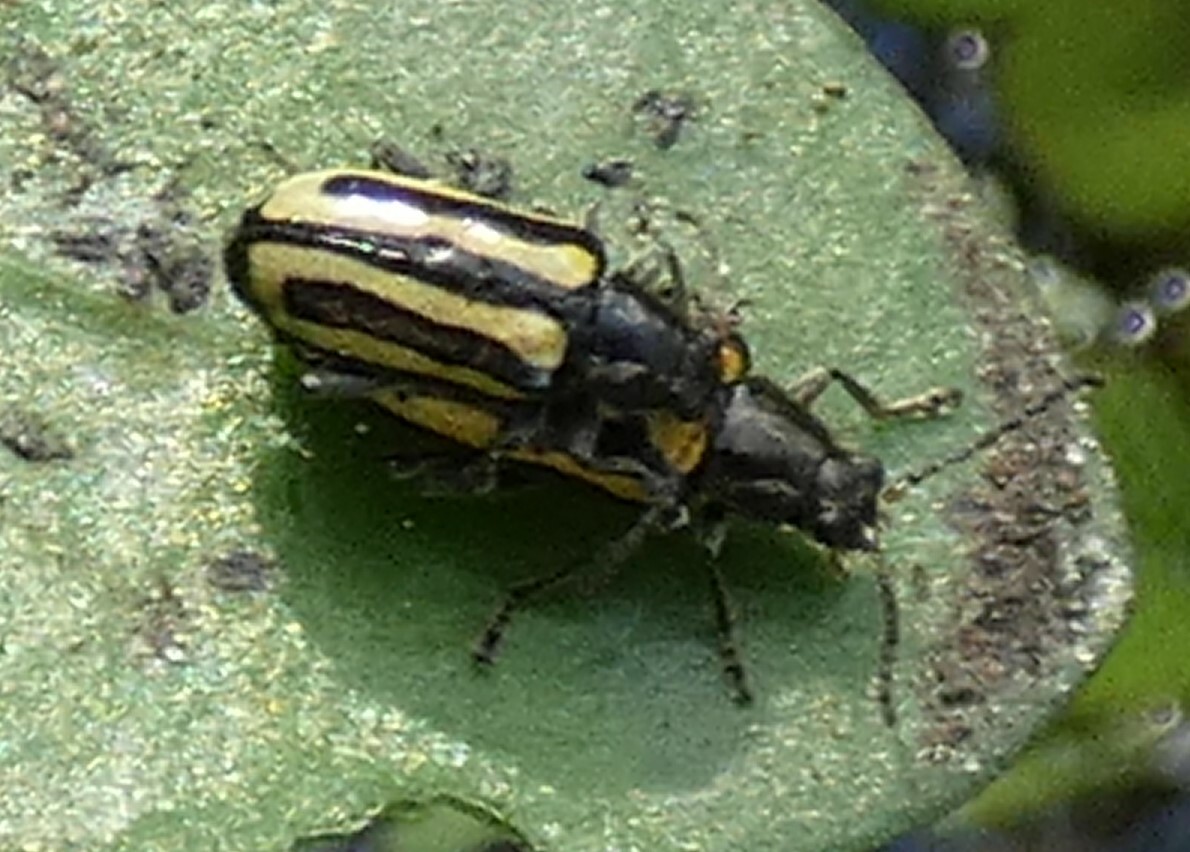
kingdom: Animalia
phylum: Arthropoda
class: Insecta
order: Coleoptera
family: Chrysomelidae
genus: Agasicles
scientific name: Agasicles hygrophila
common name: Alligatorweed flea beetle
